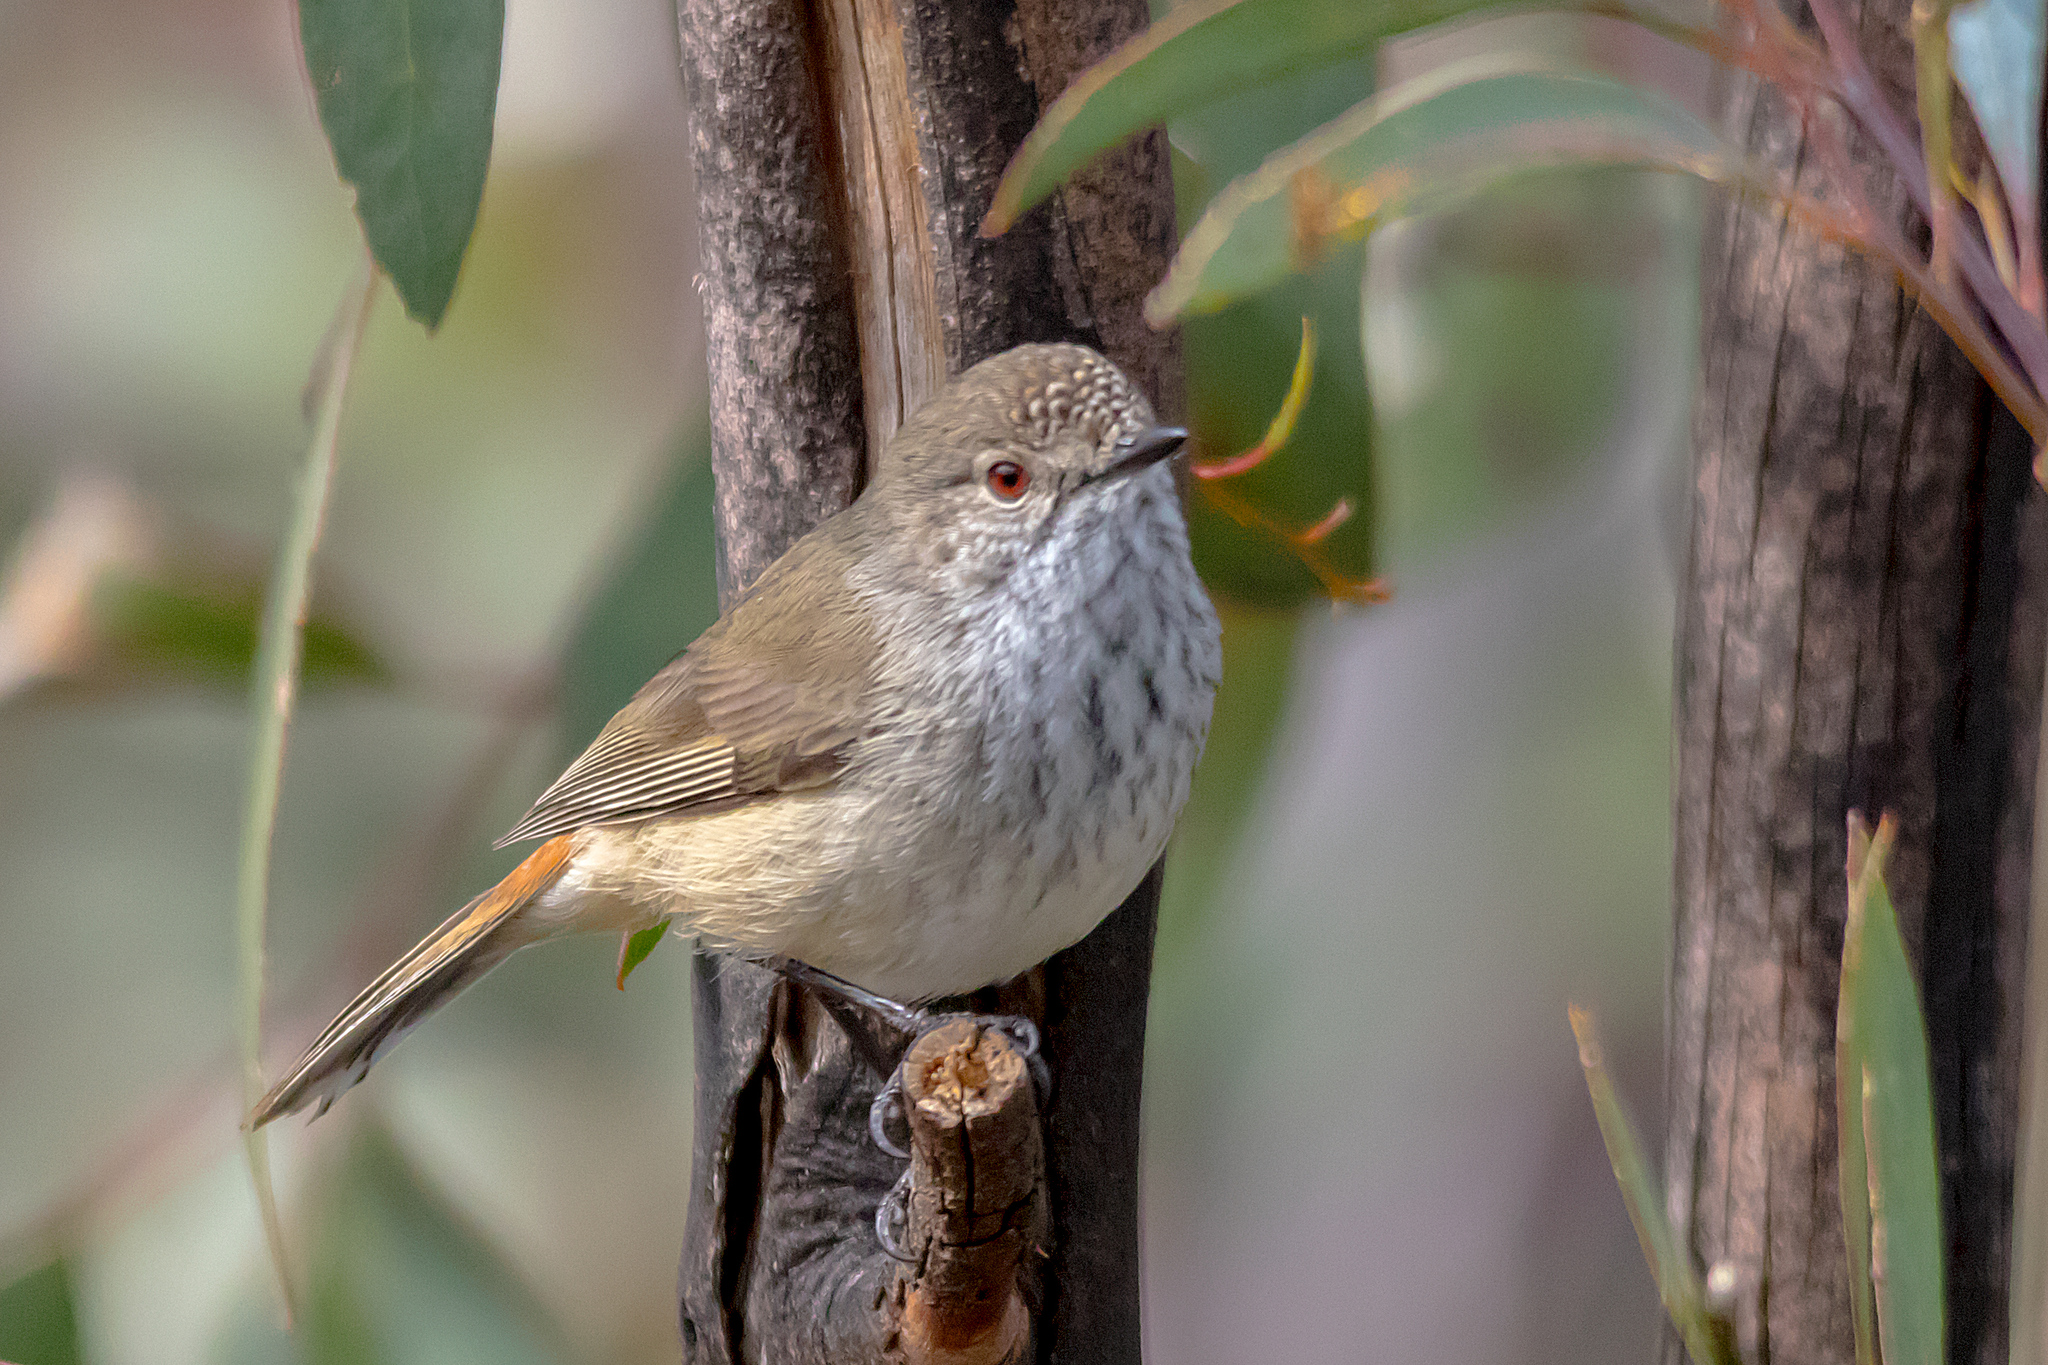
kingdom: Animalia
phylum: Chordata
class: Aves
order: Passeriformes
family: Acanthizidae
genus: Acanthiza
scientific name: Acanthiza apicalis
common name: Inland thornbill
